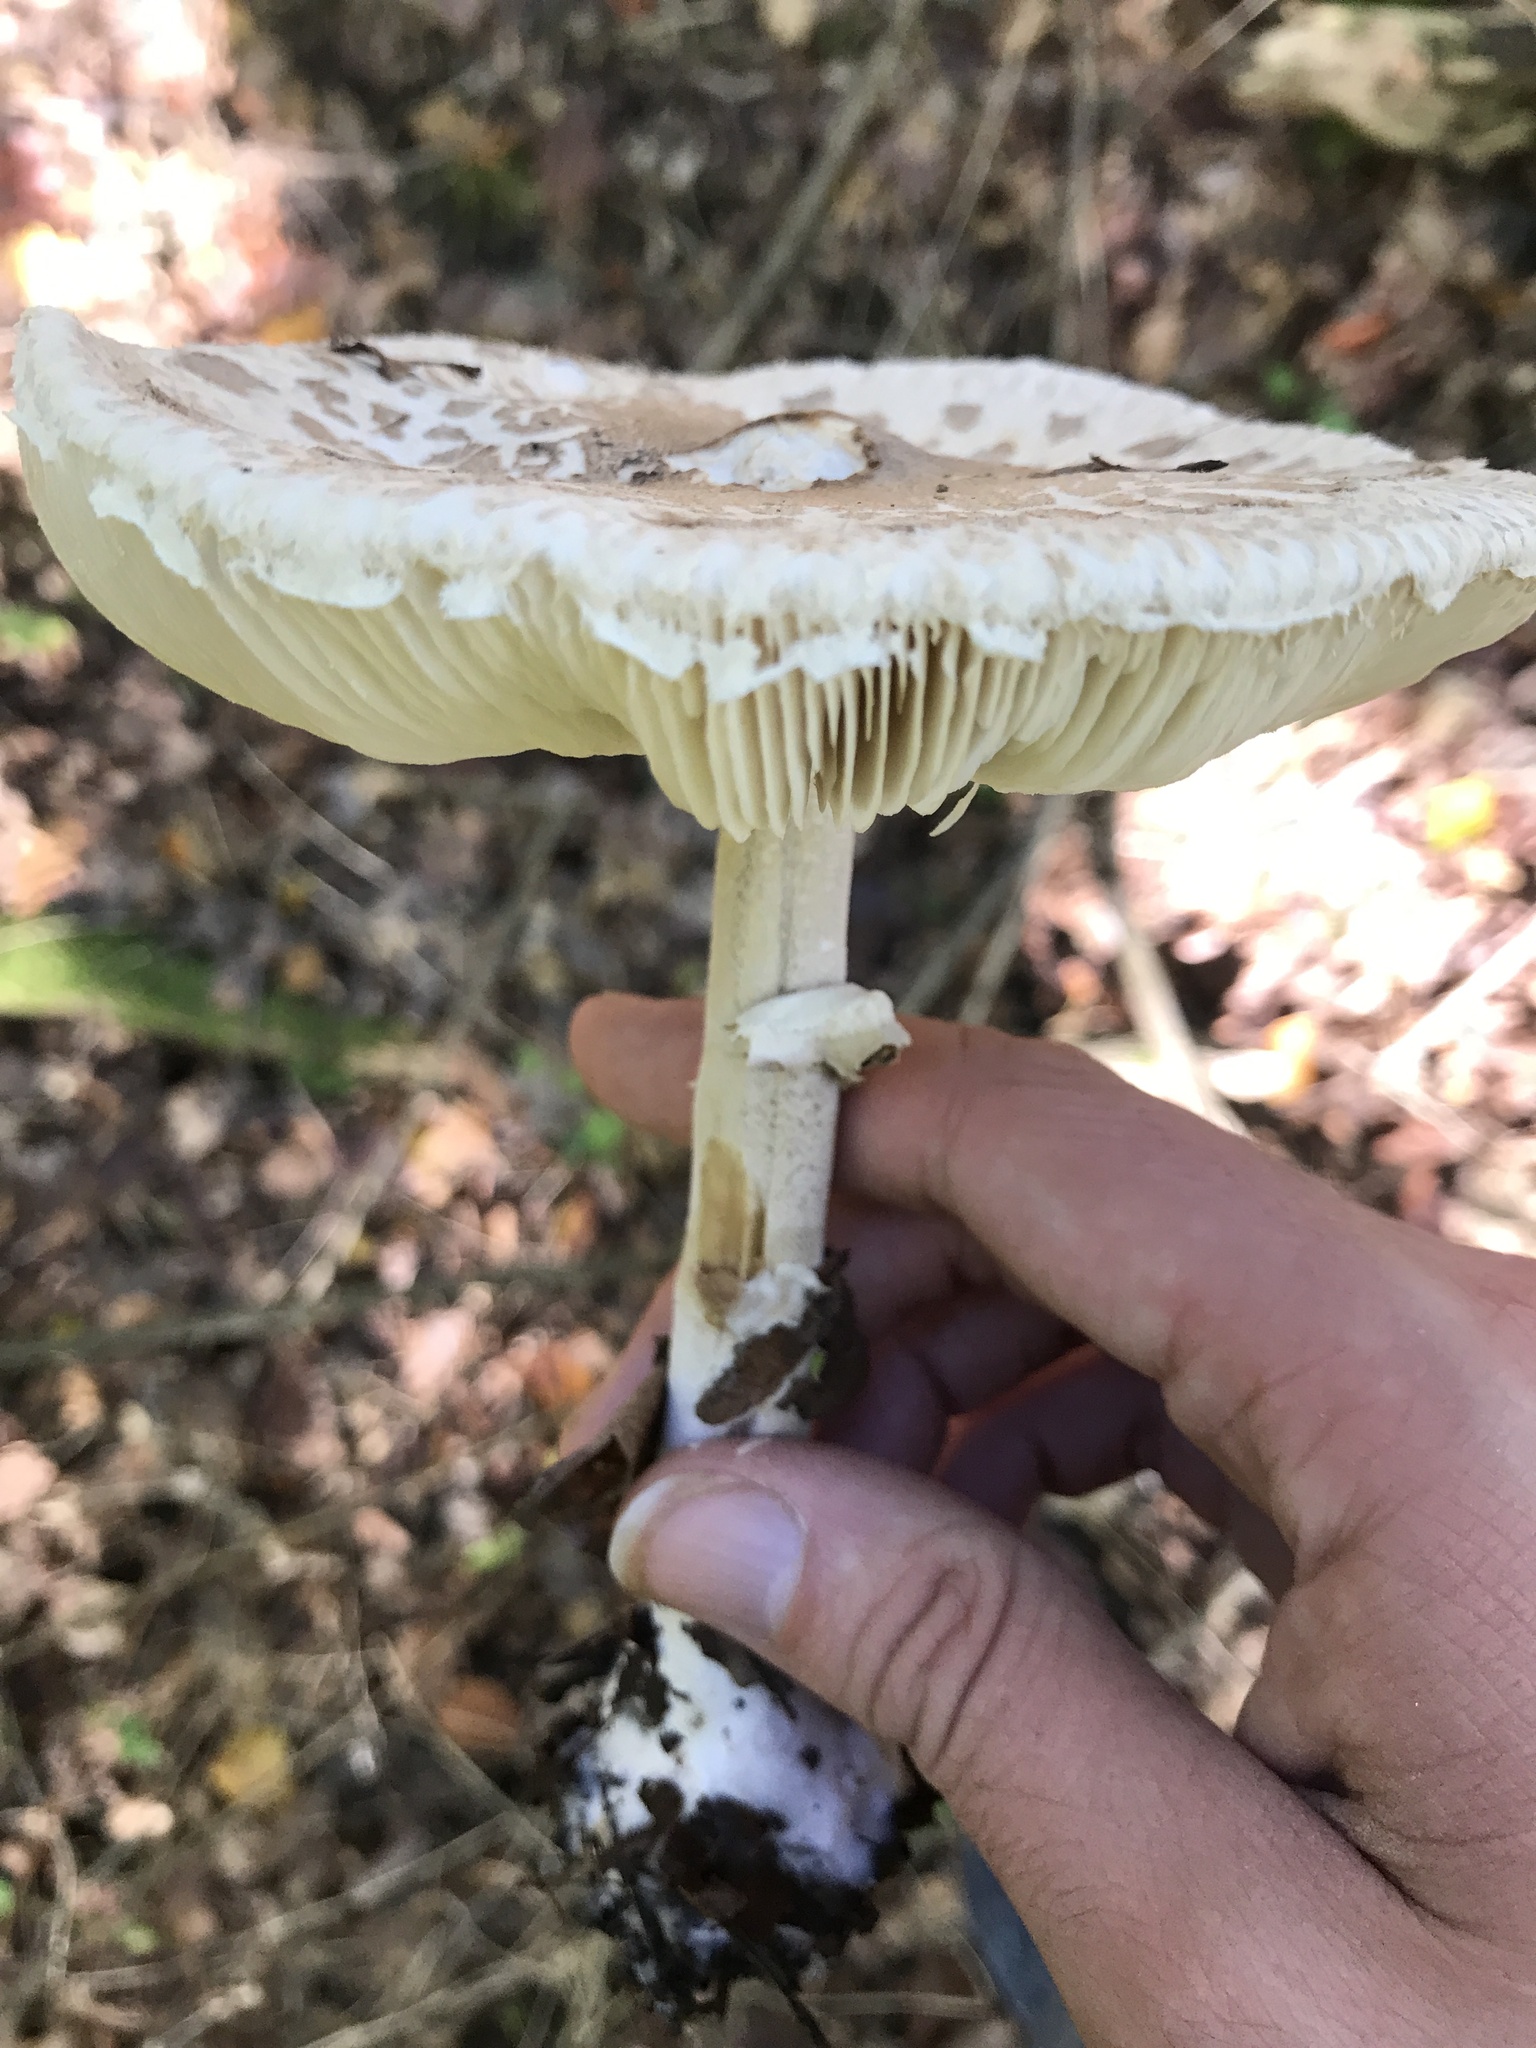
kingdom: Fungi
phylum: Basidiomycota
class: Agaricomycetes
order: Agaricales
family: Agaricaceae
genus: Macrolepiota
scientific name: Macrolepiota excoriata
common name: Frayed parasol
